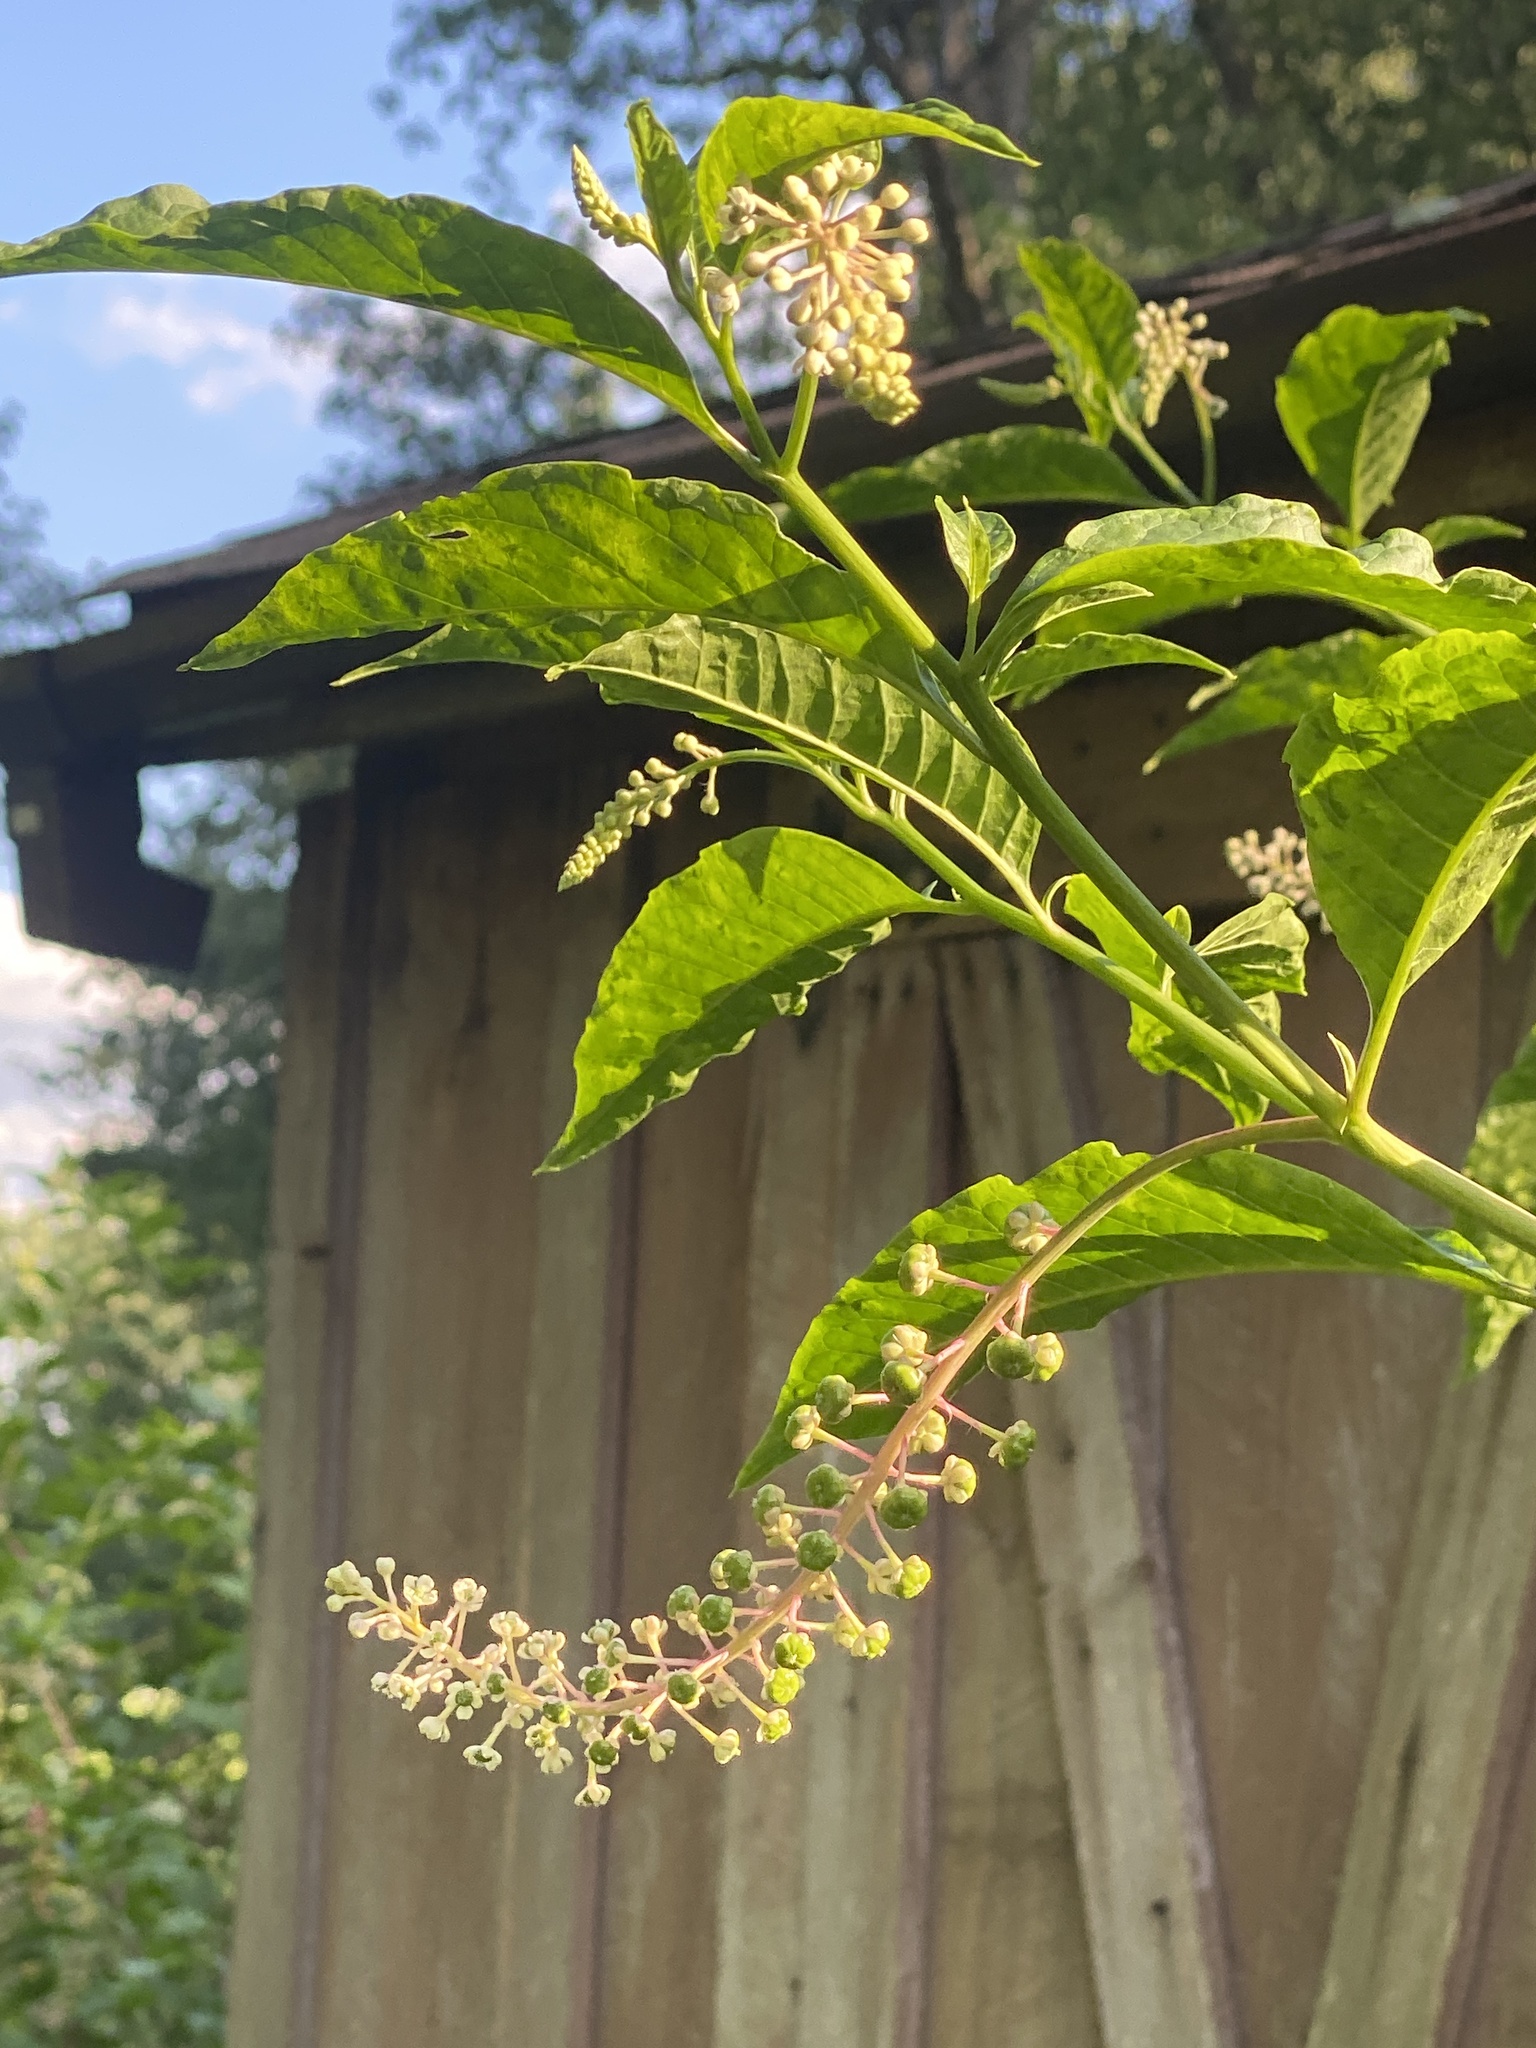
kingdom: Plantae
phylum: Tracheophyta
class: Magnoliopsida
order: Caryophyllales
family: Phytolaccaceae
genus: Phytolacca
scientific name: Phytolacca americana
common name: American pokeweed
